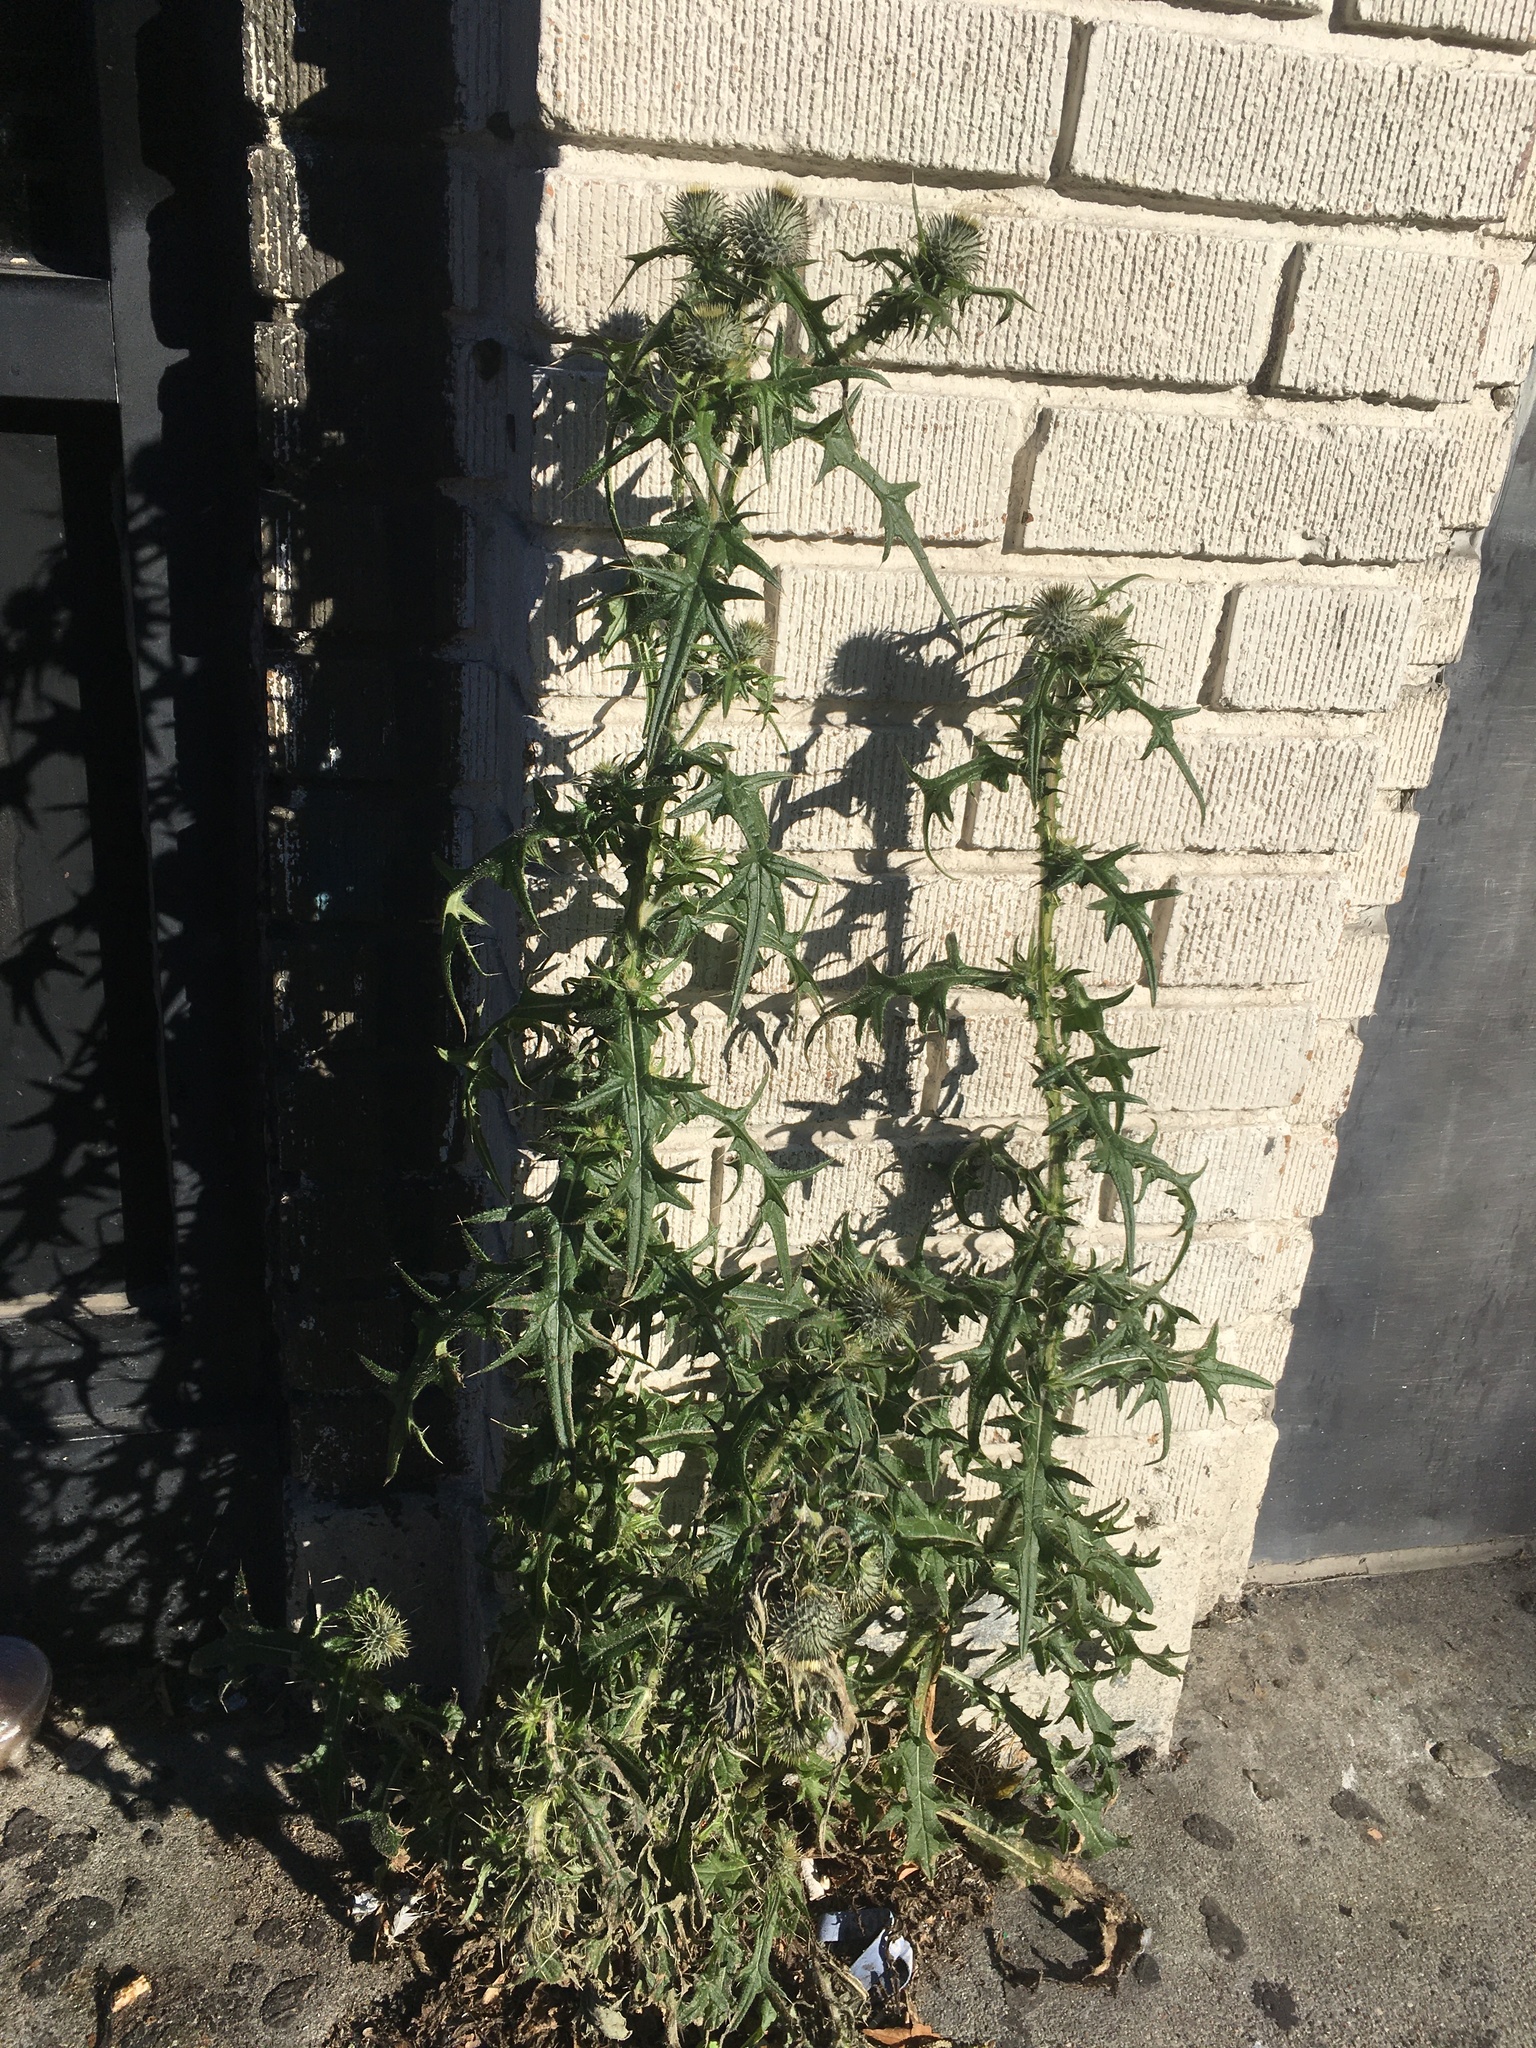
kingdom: Plantae
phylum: Tracheophyta
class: Magnoliopsida
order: Asterales
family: Asteraceae
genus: Cirsium
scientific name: Cirsium vulgare
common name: Bull thistle
